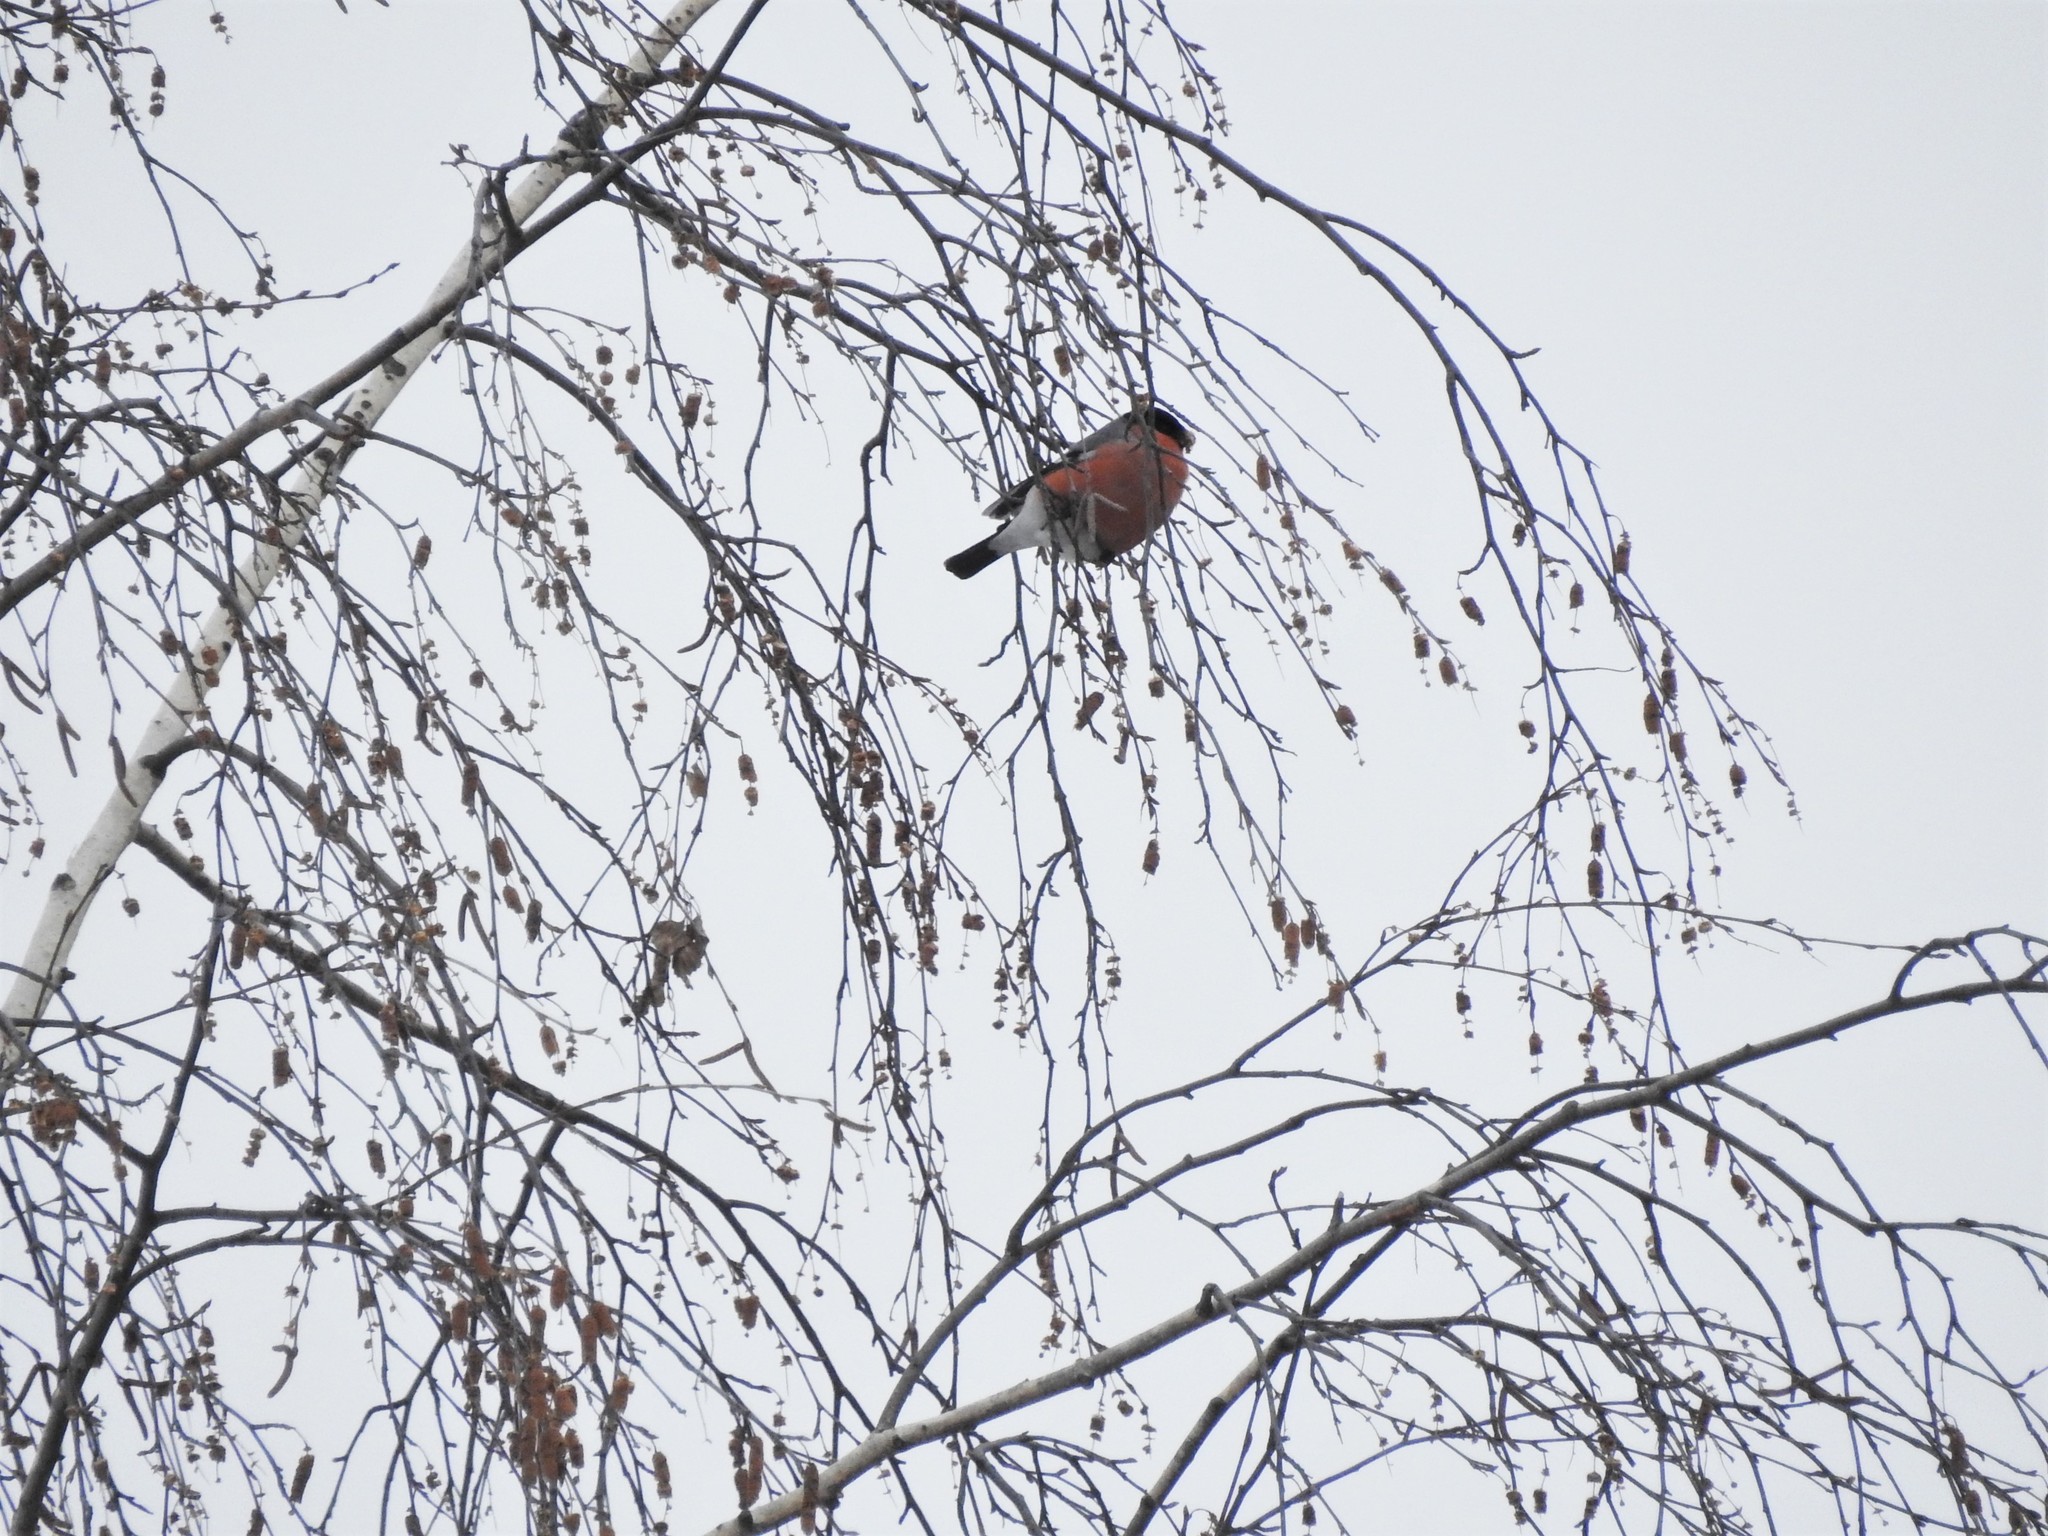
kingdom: Animalia
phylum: Chordata
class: Aves
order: Passeriformes
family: Fringillidae
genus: Pyrrhula
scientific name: Pyrrhula pyrrhula
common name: Eurasian bullfinch
